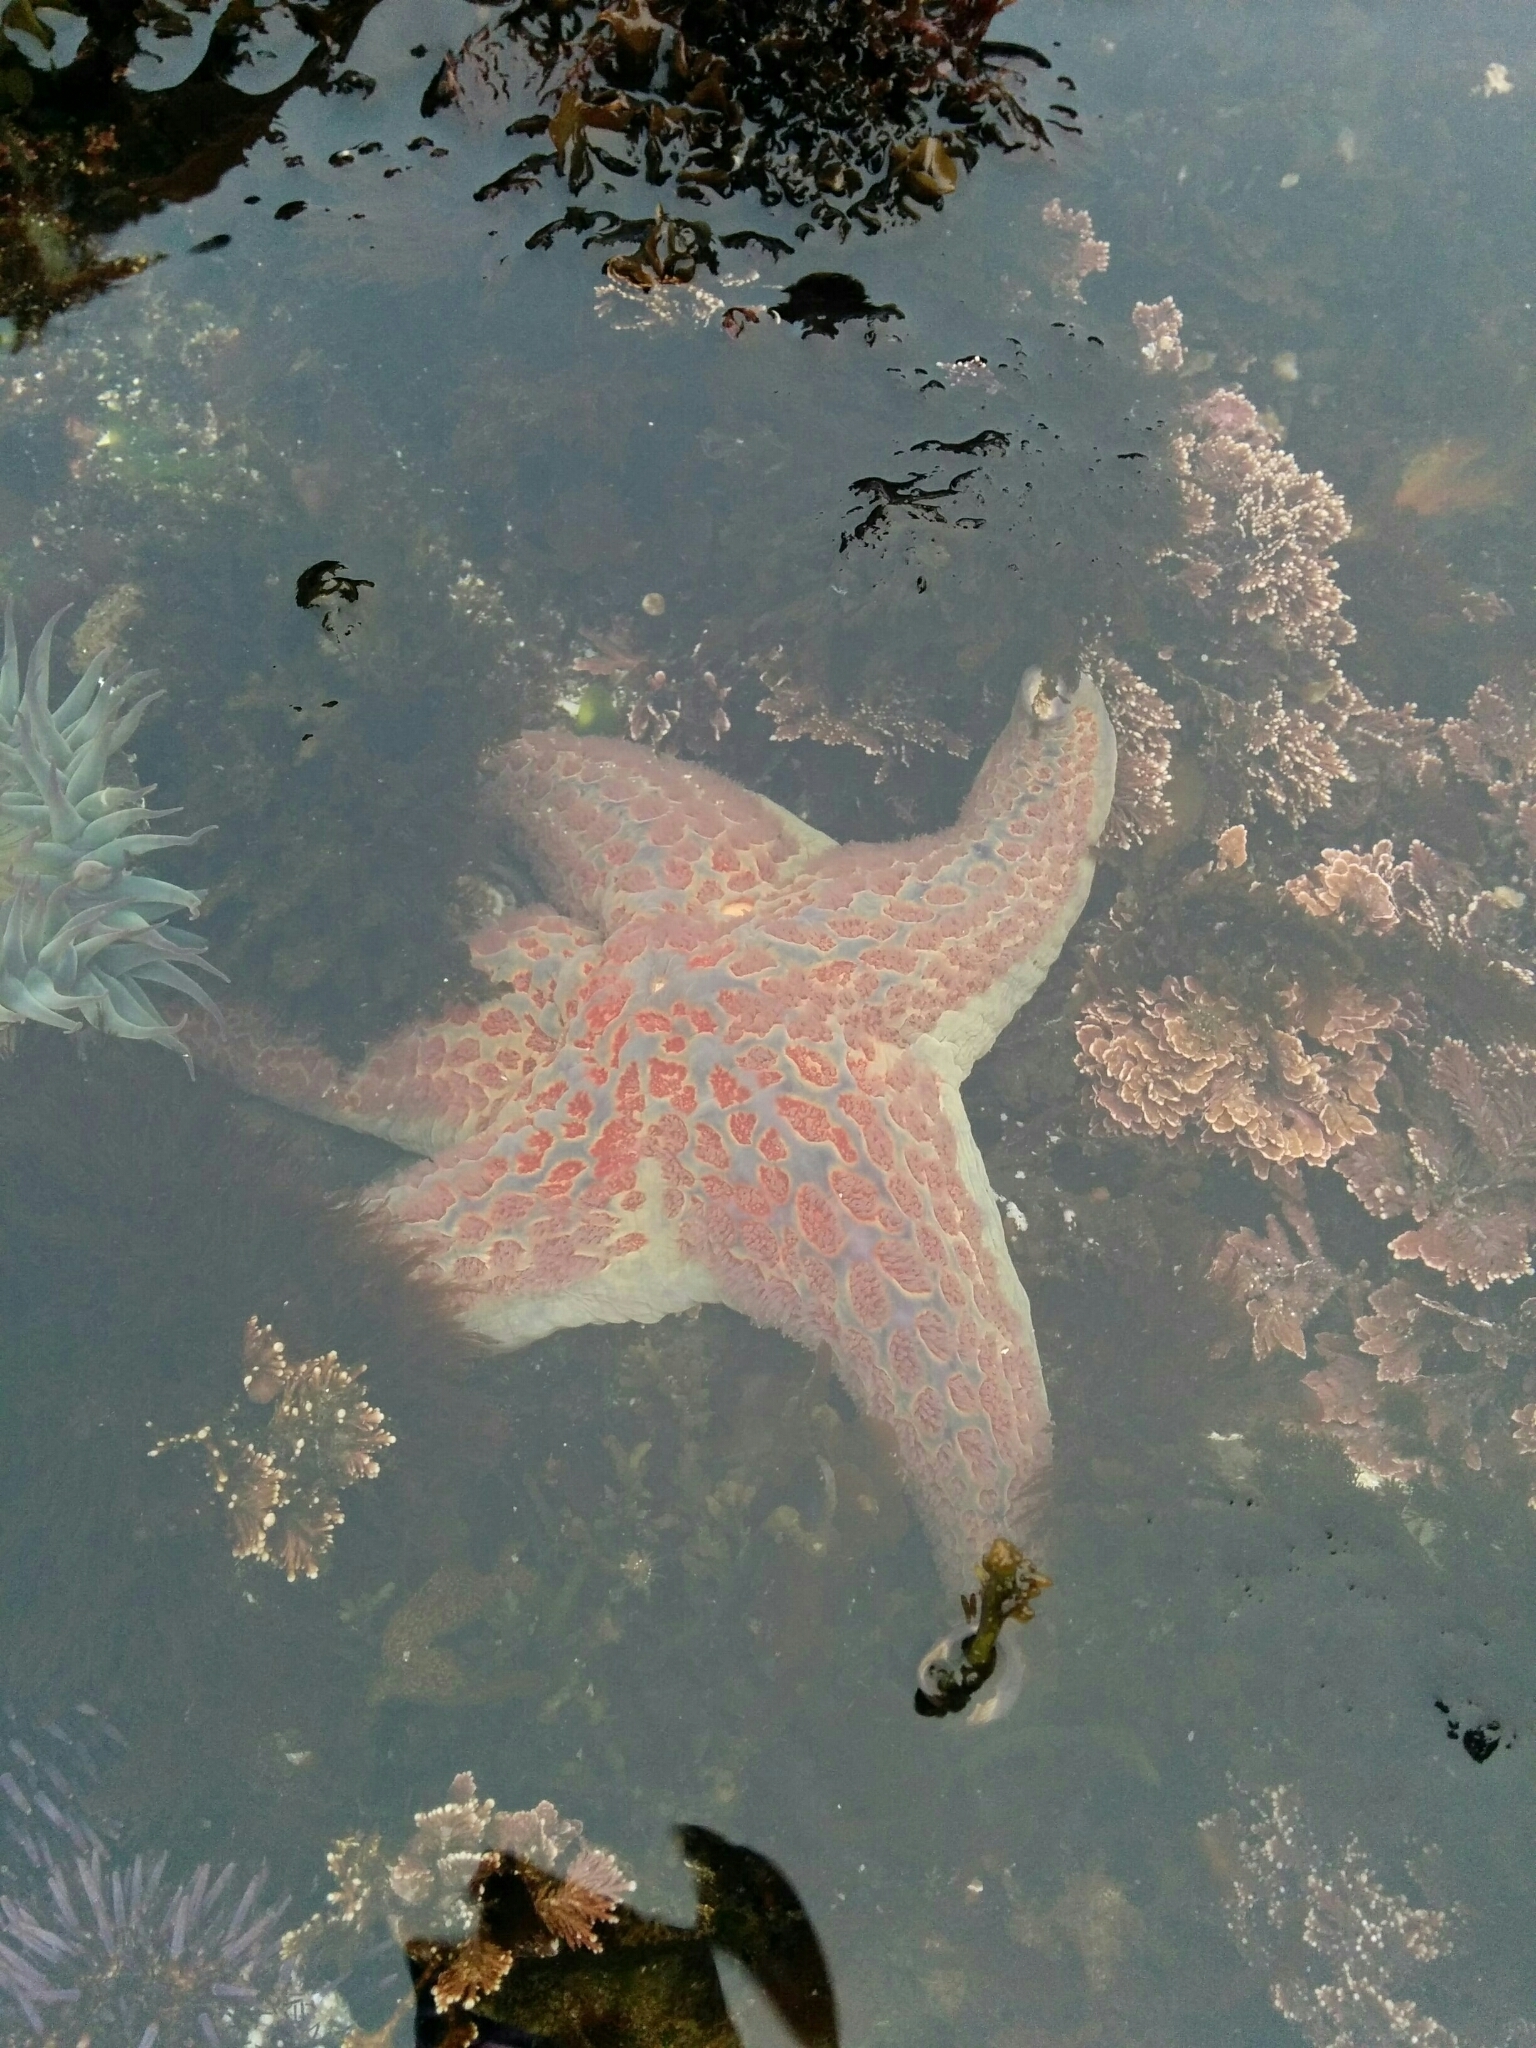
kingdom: Animalia
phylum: Echinodermata
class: Asteroidea
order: Valvatida
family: Asteropseidae
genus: Dermasterias
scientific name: Dermasterias imbricata
